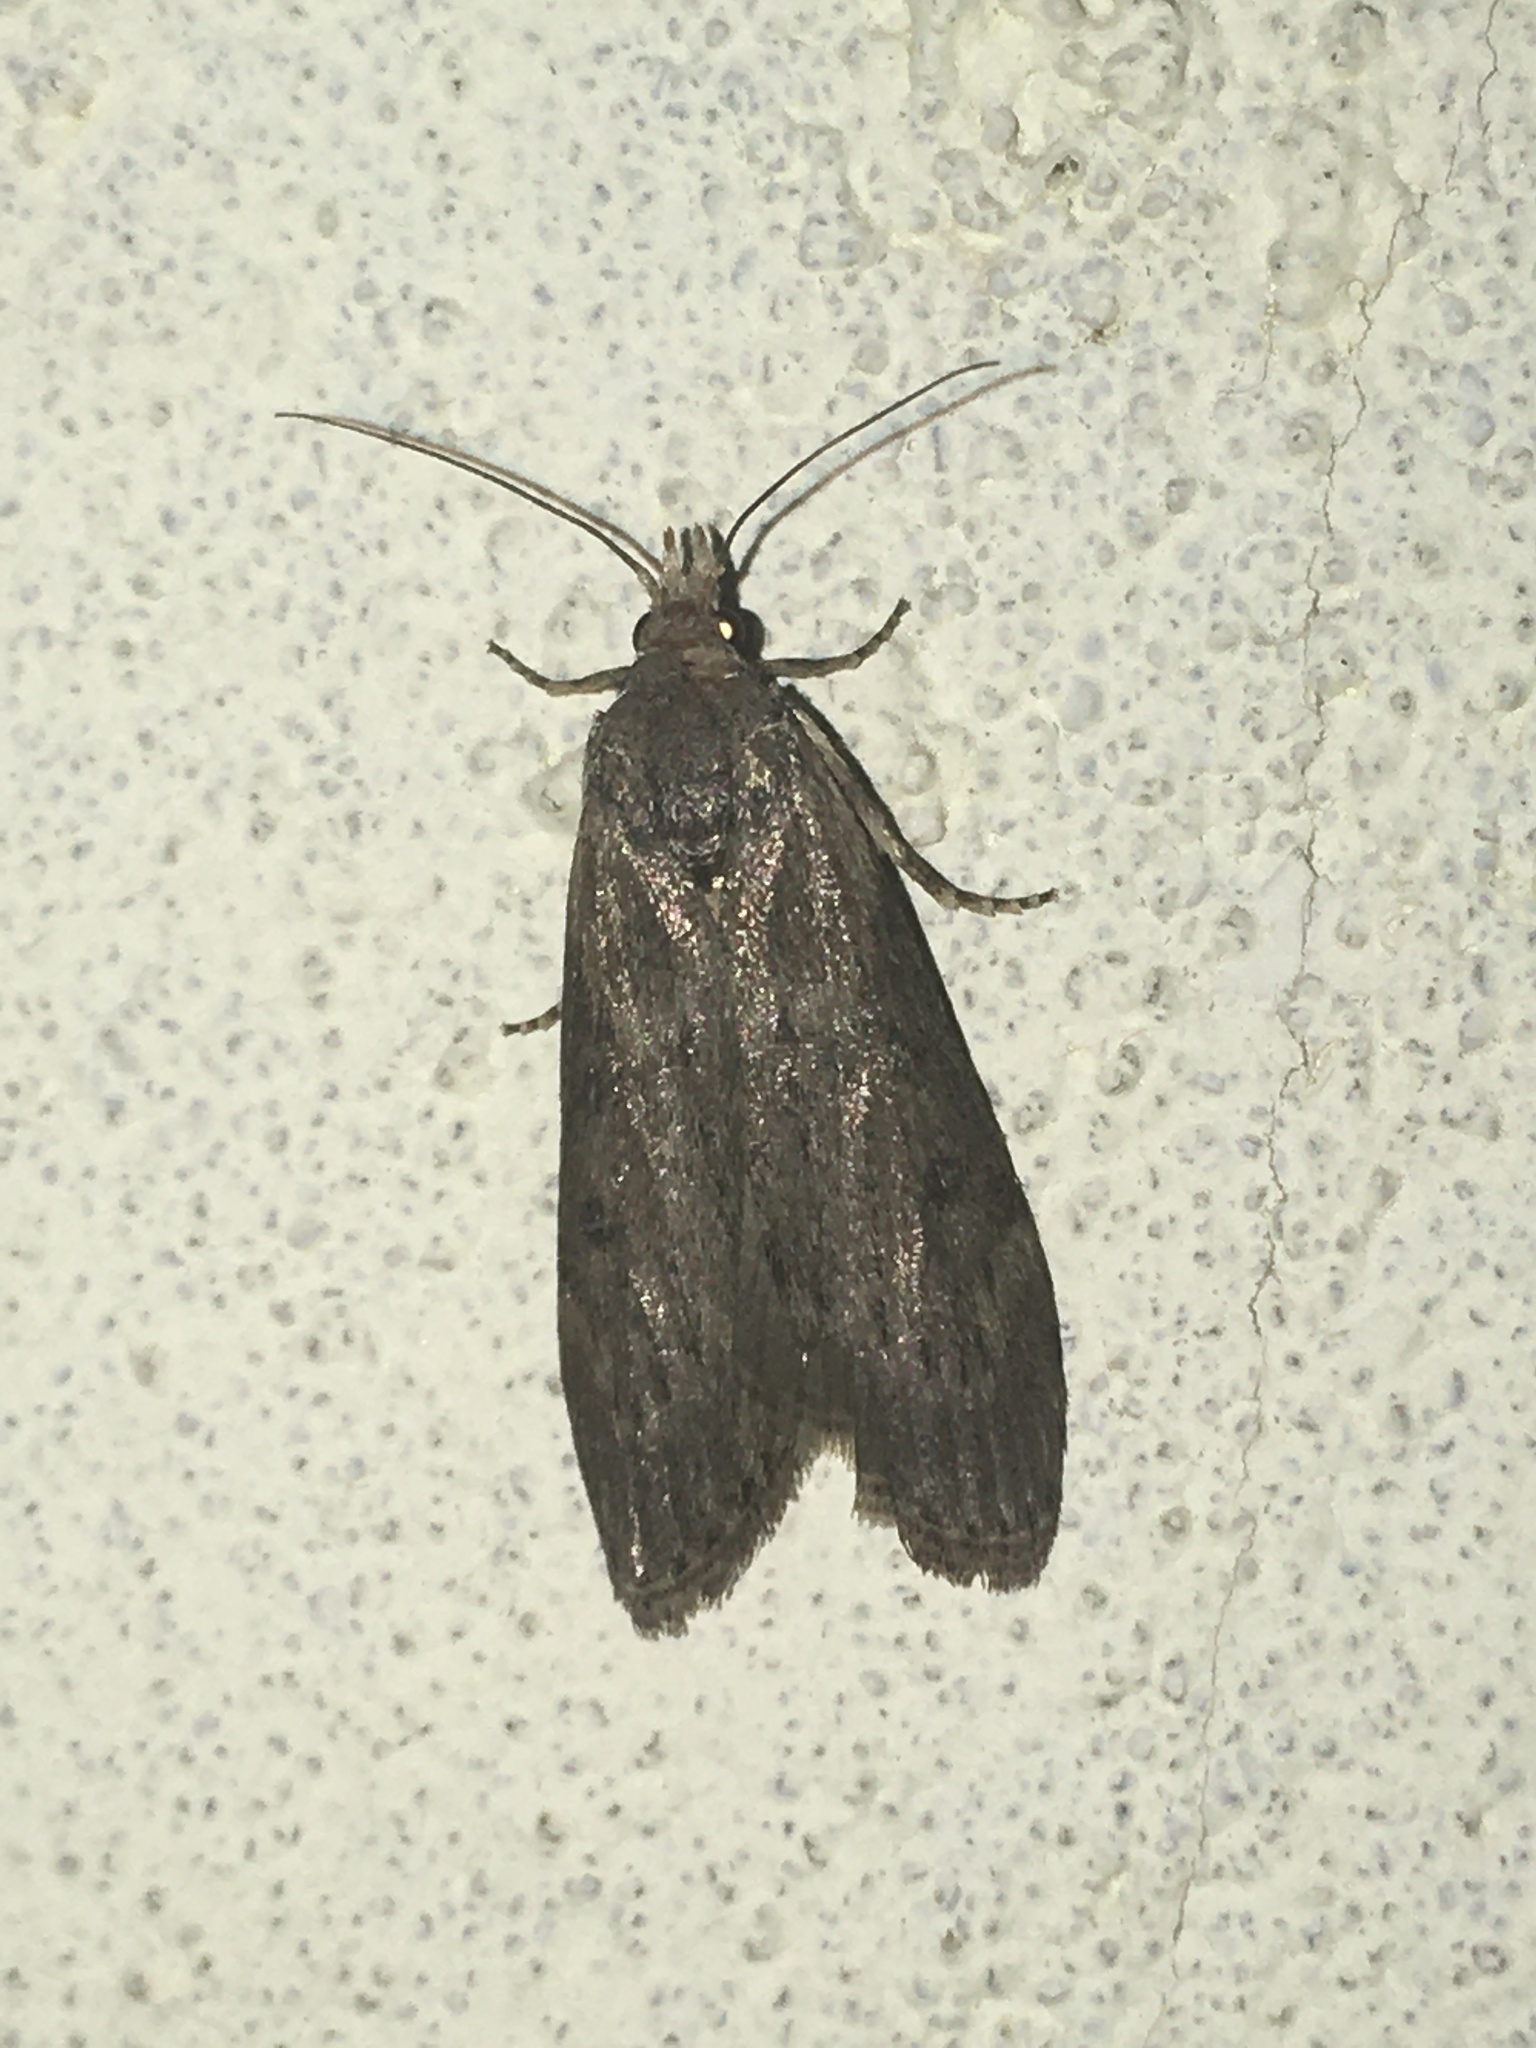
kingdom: Animalia
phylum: Arthropoda
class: Insecta
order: Lepidoptera
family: Pyralidae
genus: Lamoria
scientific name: Lamoria anella
